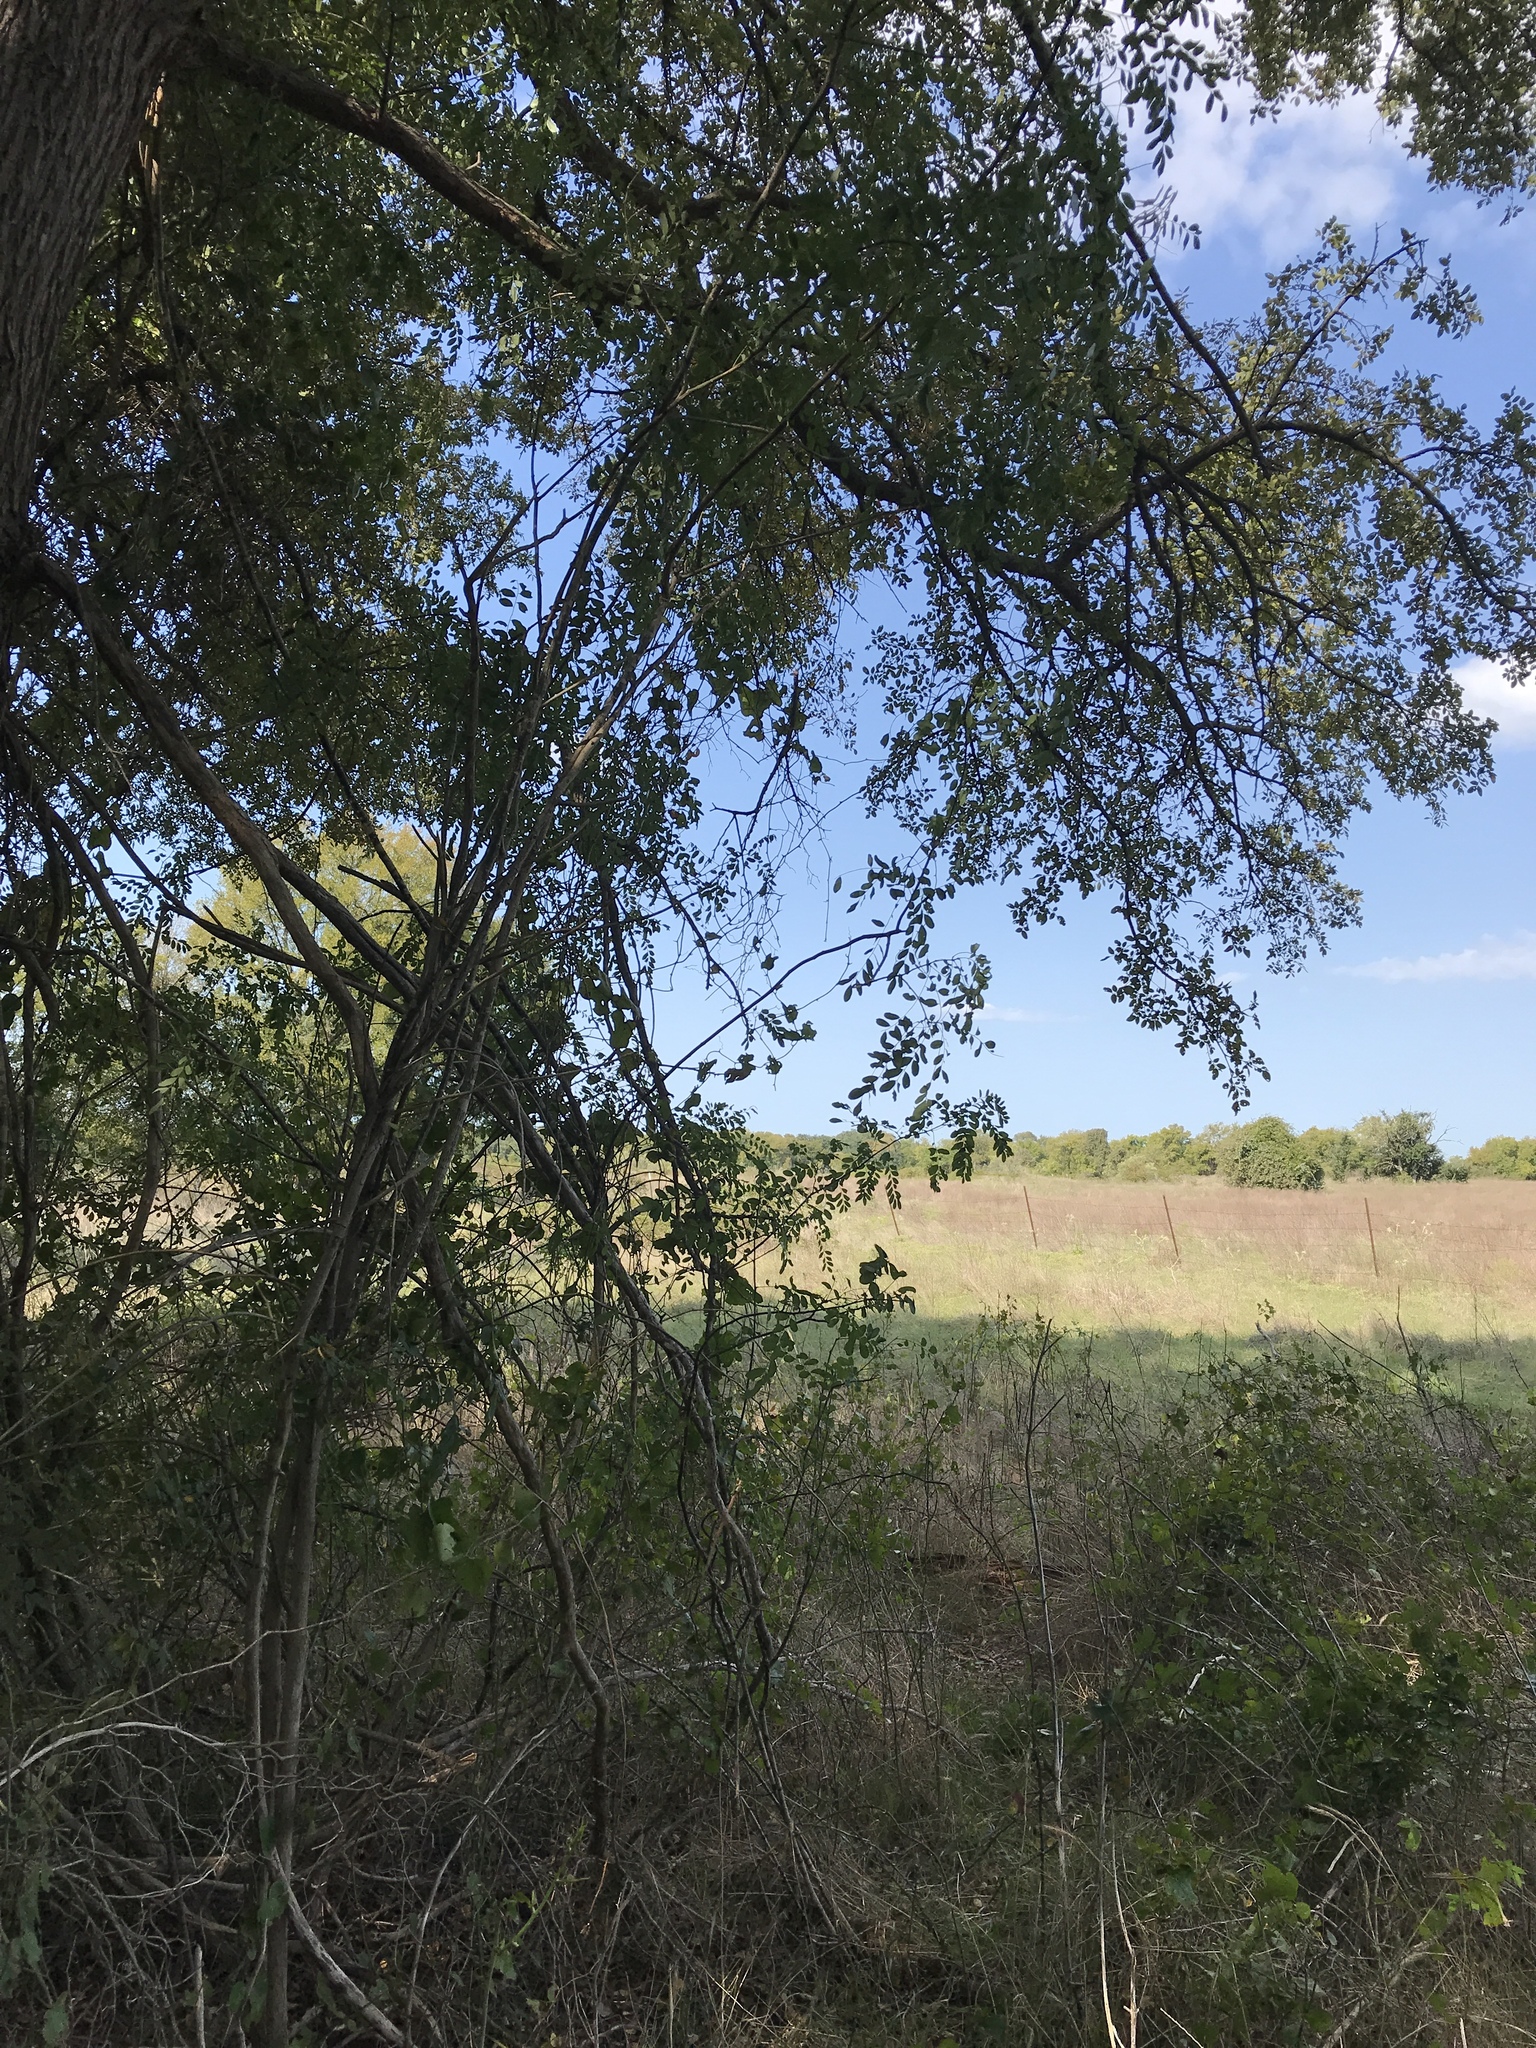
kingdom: Plantae
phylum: Tracheophyta
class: Magnoliopsida
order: Fabales
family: Fabaceae
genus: Styphnolobium
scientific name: Styphnolobium affine
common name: Texas sophora
